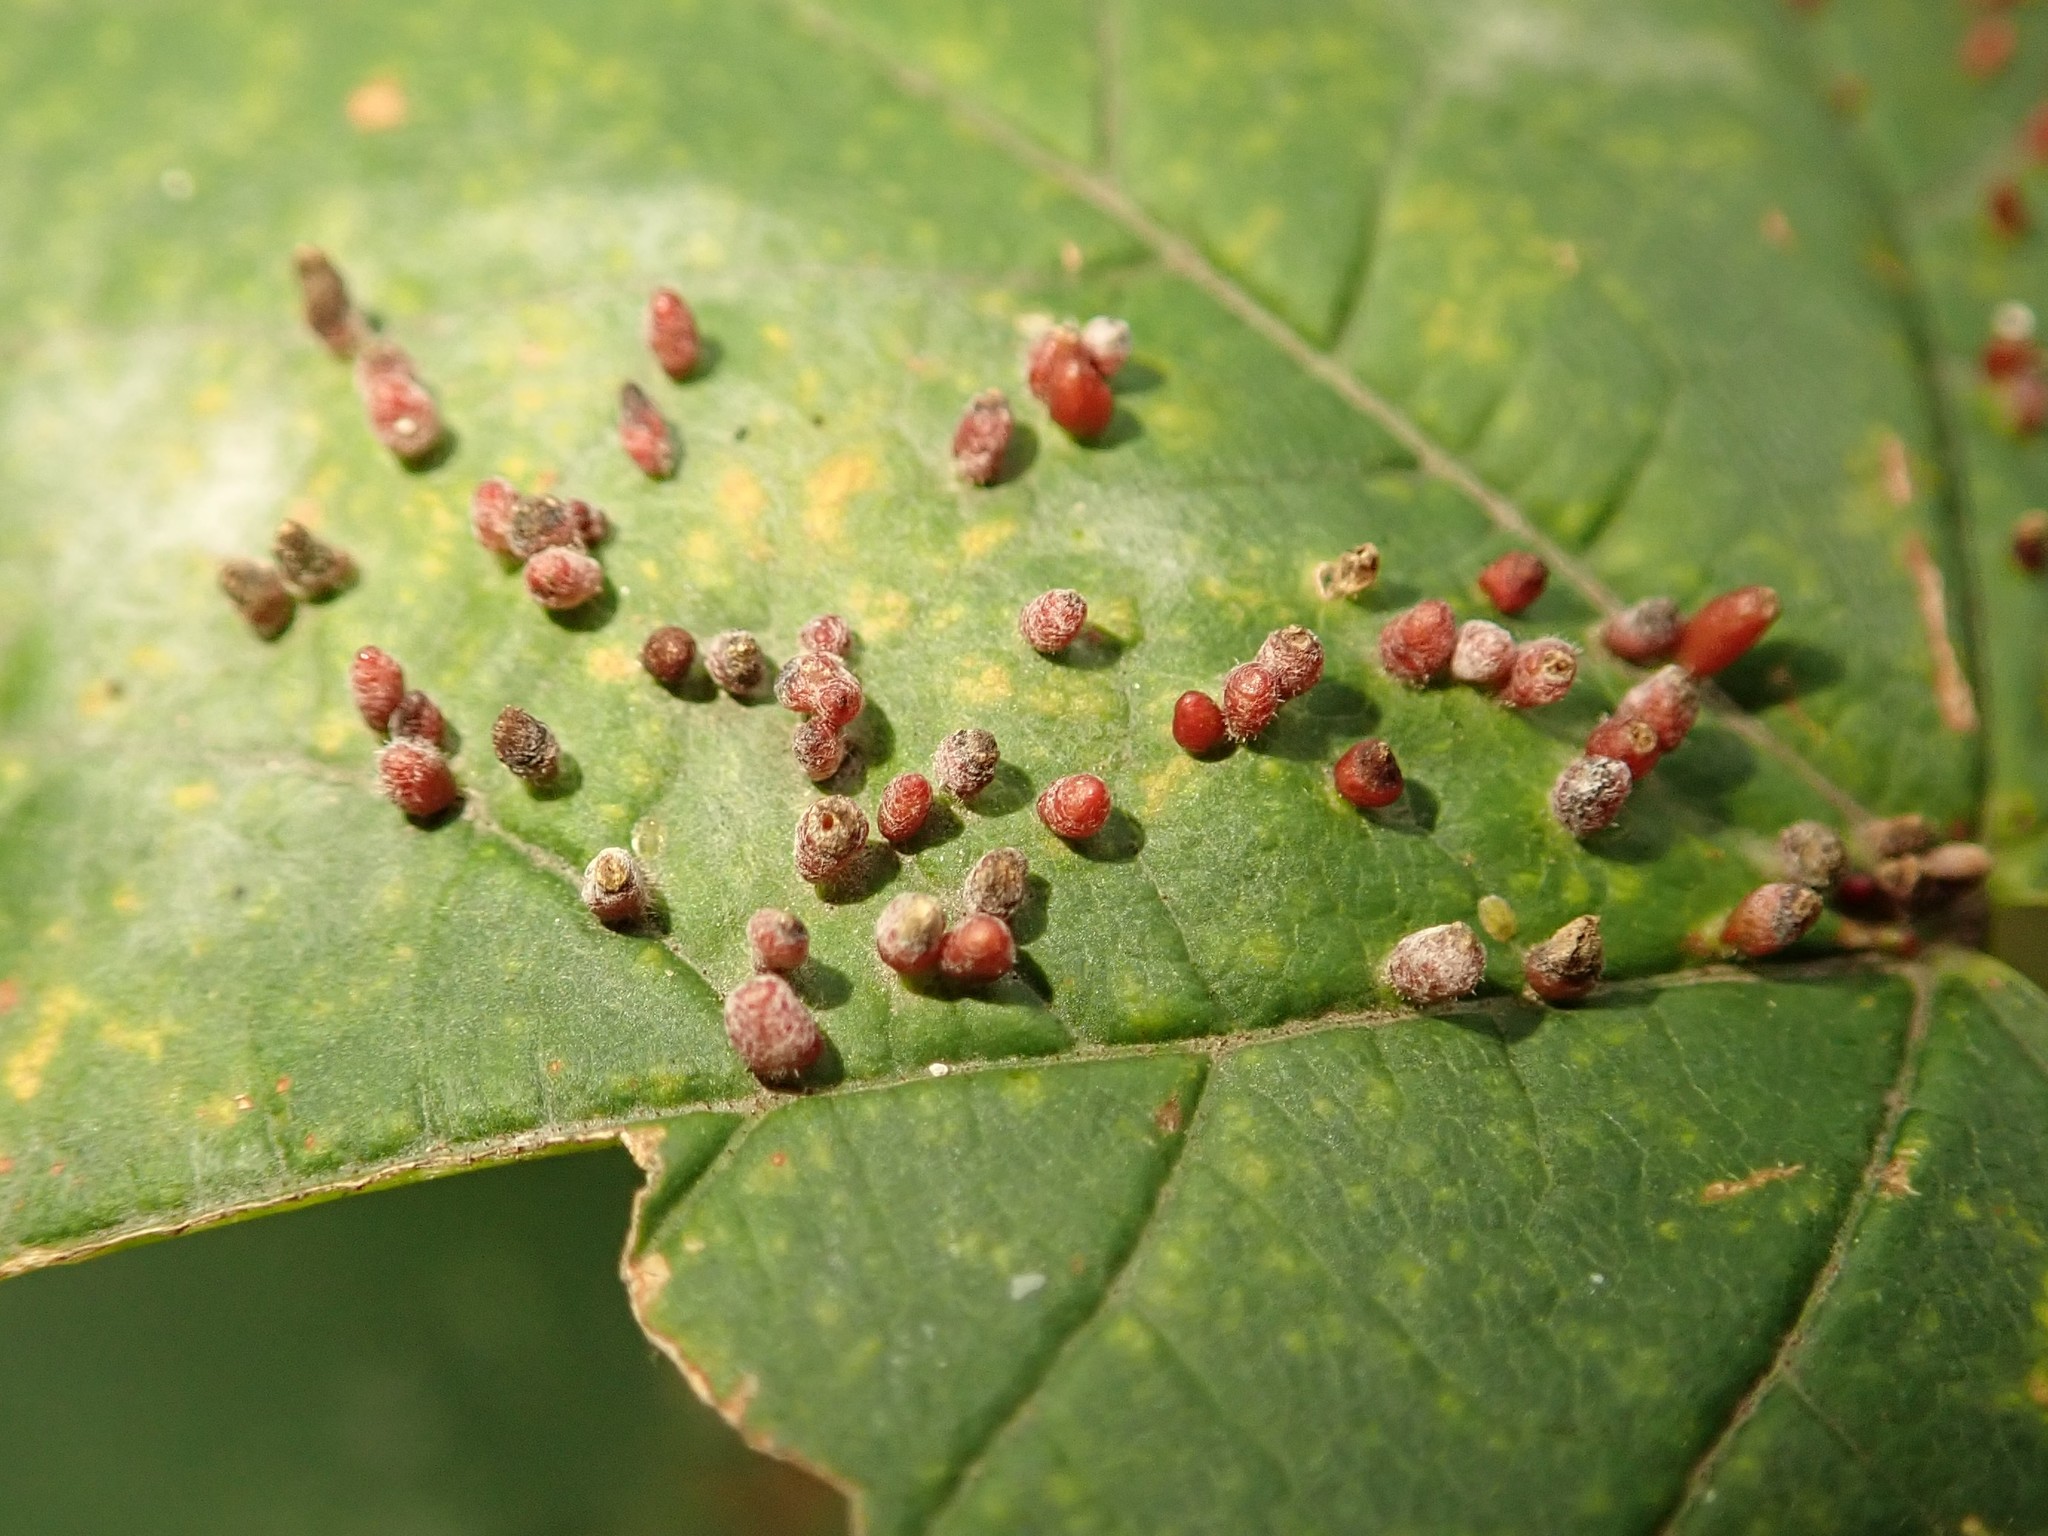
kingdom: Animalia
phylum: Arthropoda
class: Arachnida
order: Trombidiformes
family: Eriophyidae
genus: Aceria
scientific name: Aceria cephaloneus
